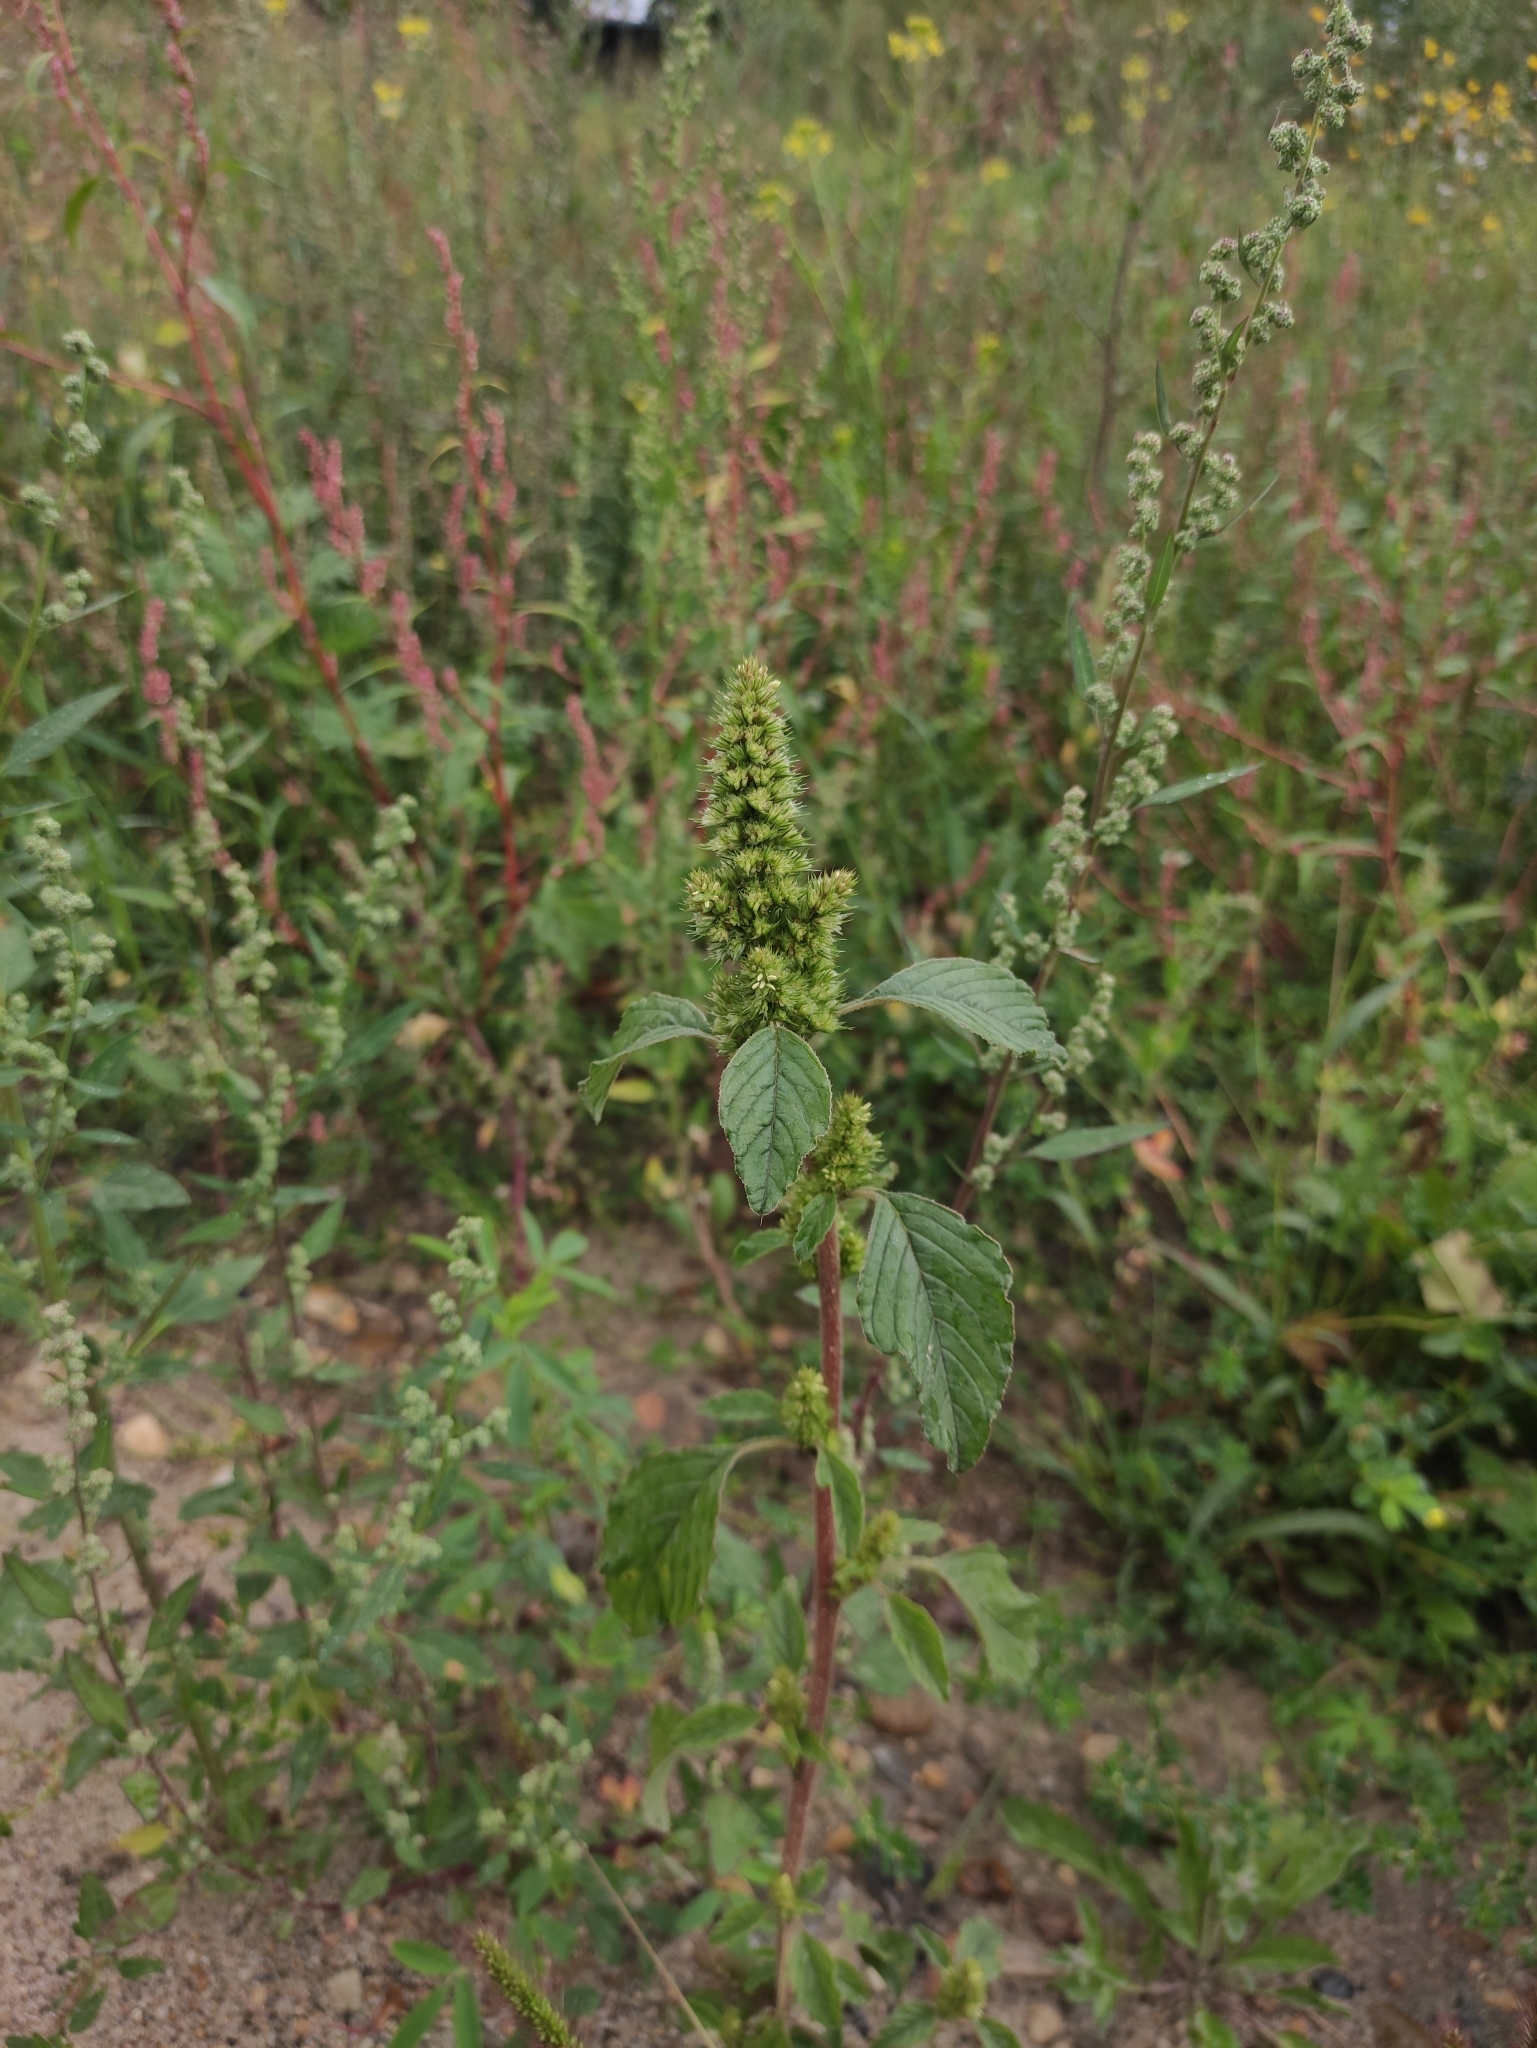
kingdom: Plantae
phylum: Tracheophyta
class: Magnoliopsida
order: Caryophyllales
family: Amaranthaceae
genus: Amaranthus
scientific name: Amaranthus retroflexus
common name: Redroot amaranth
